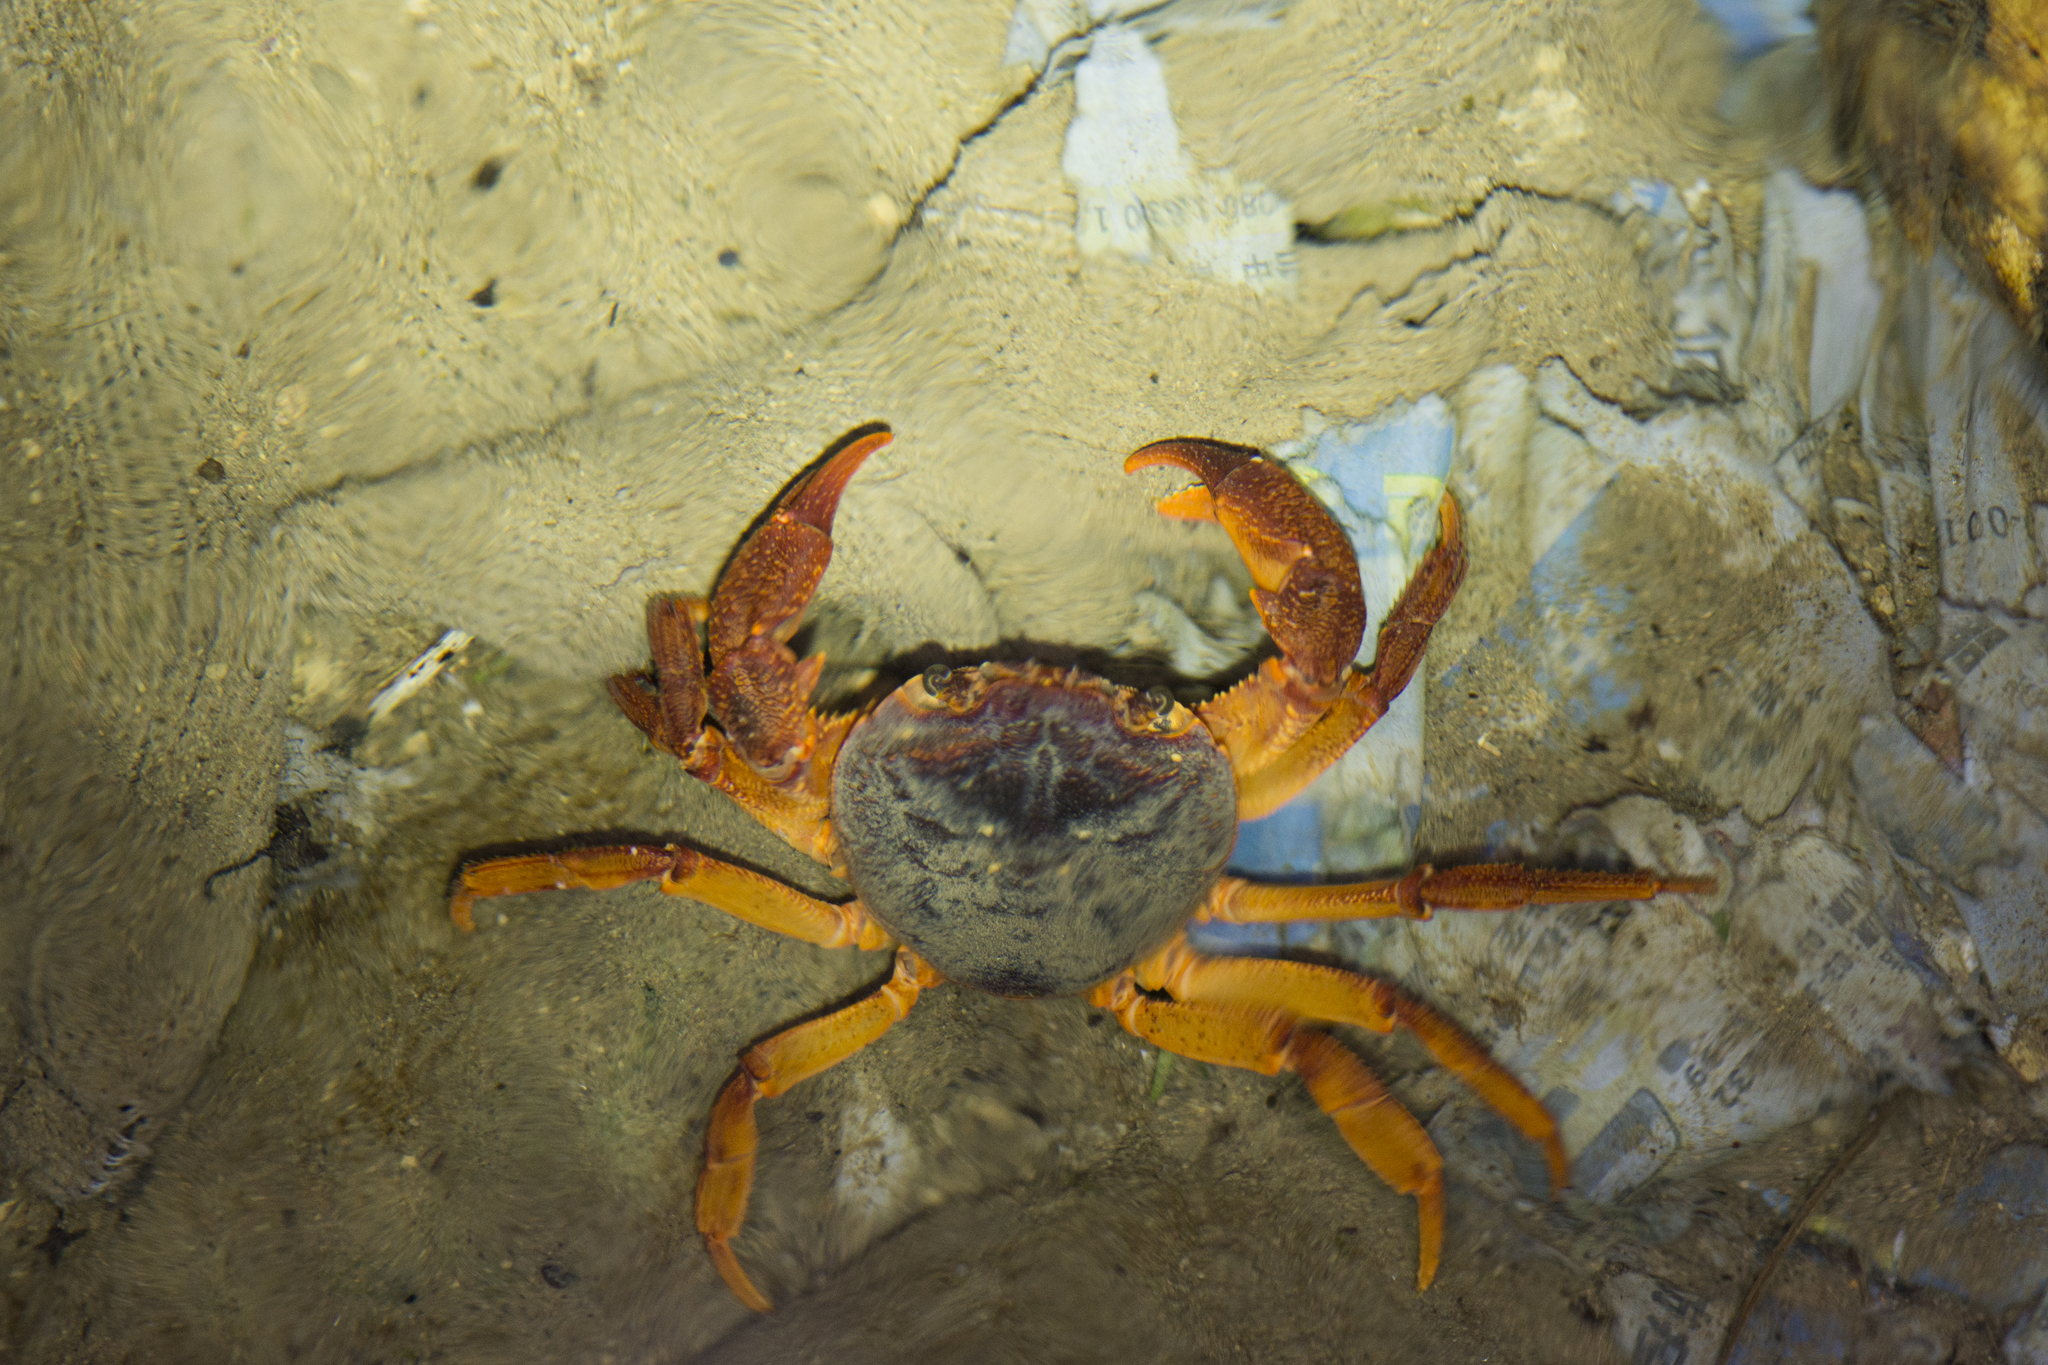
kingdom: Animalia
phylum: Arthropoda
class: Malacostraca
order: Decapoda
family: Potamidae
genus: Candidiopotamon
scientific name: Candidiopotamon rathbuni
